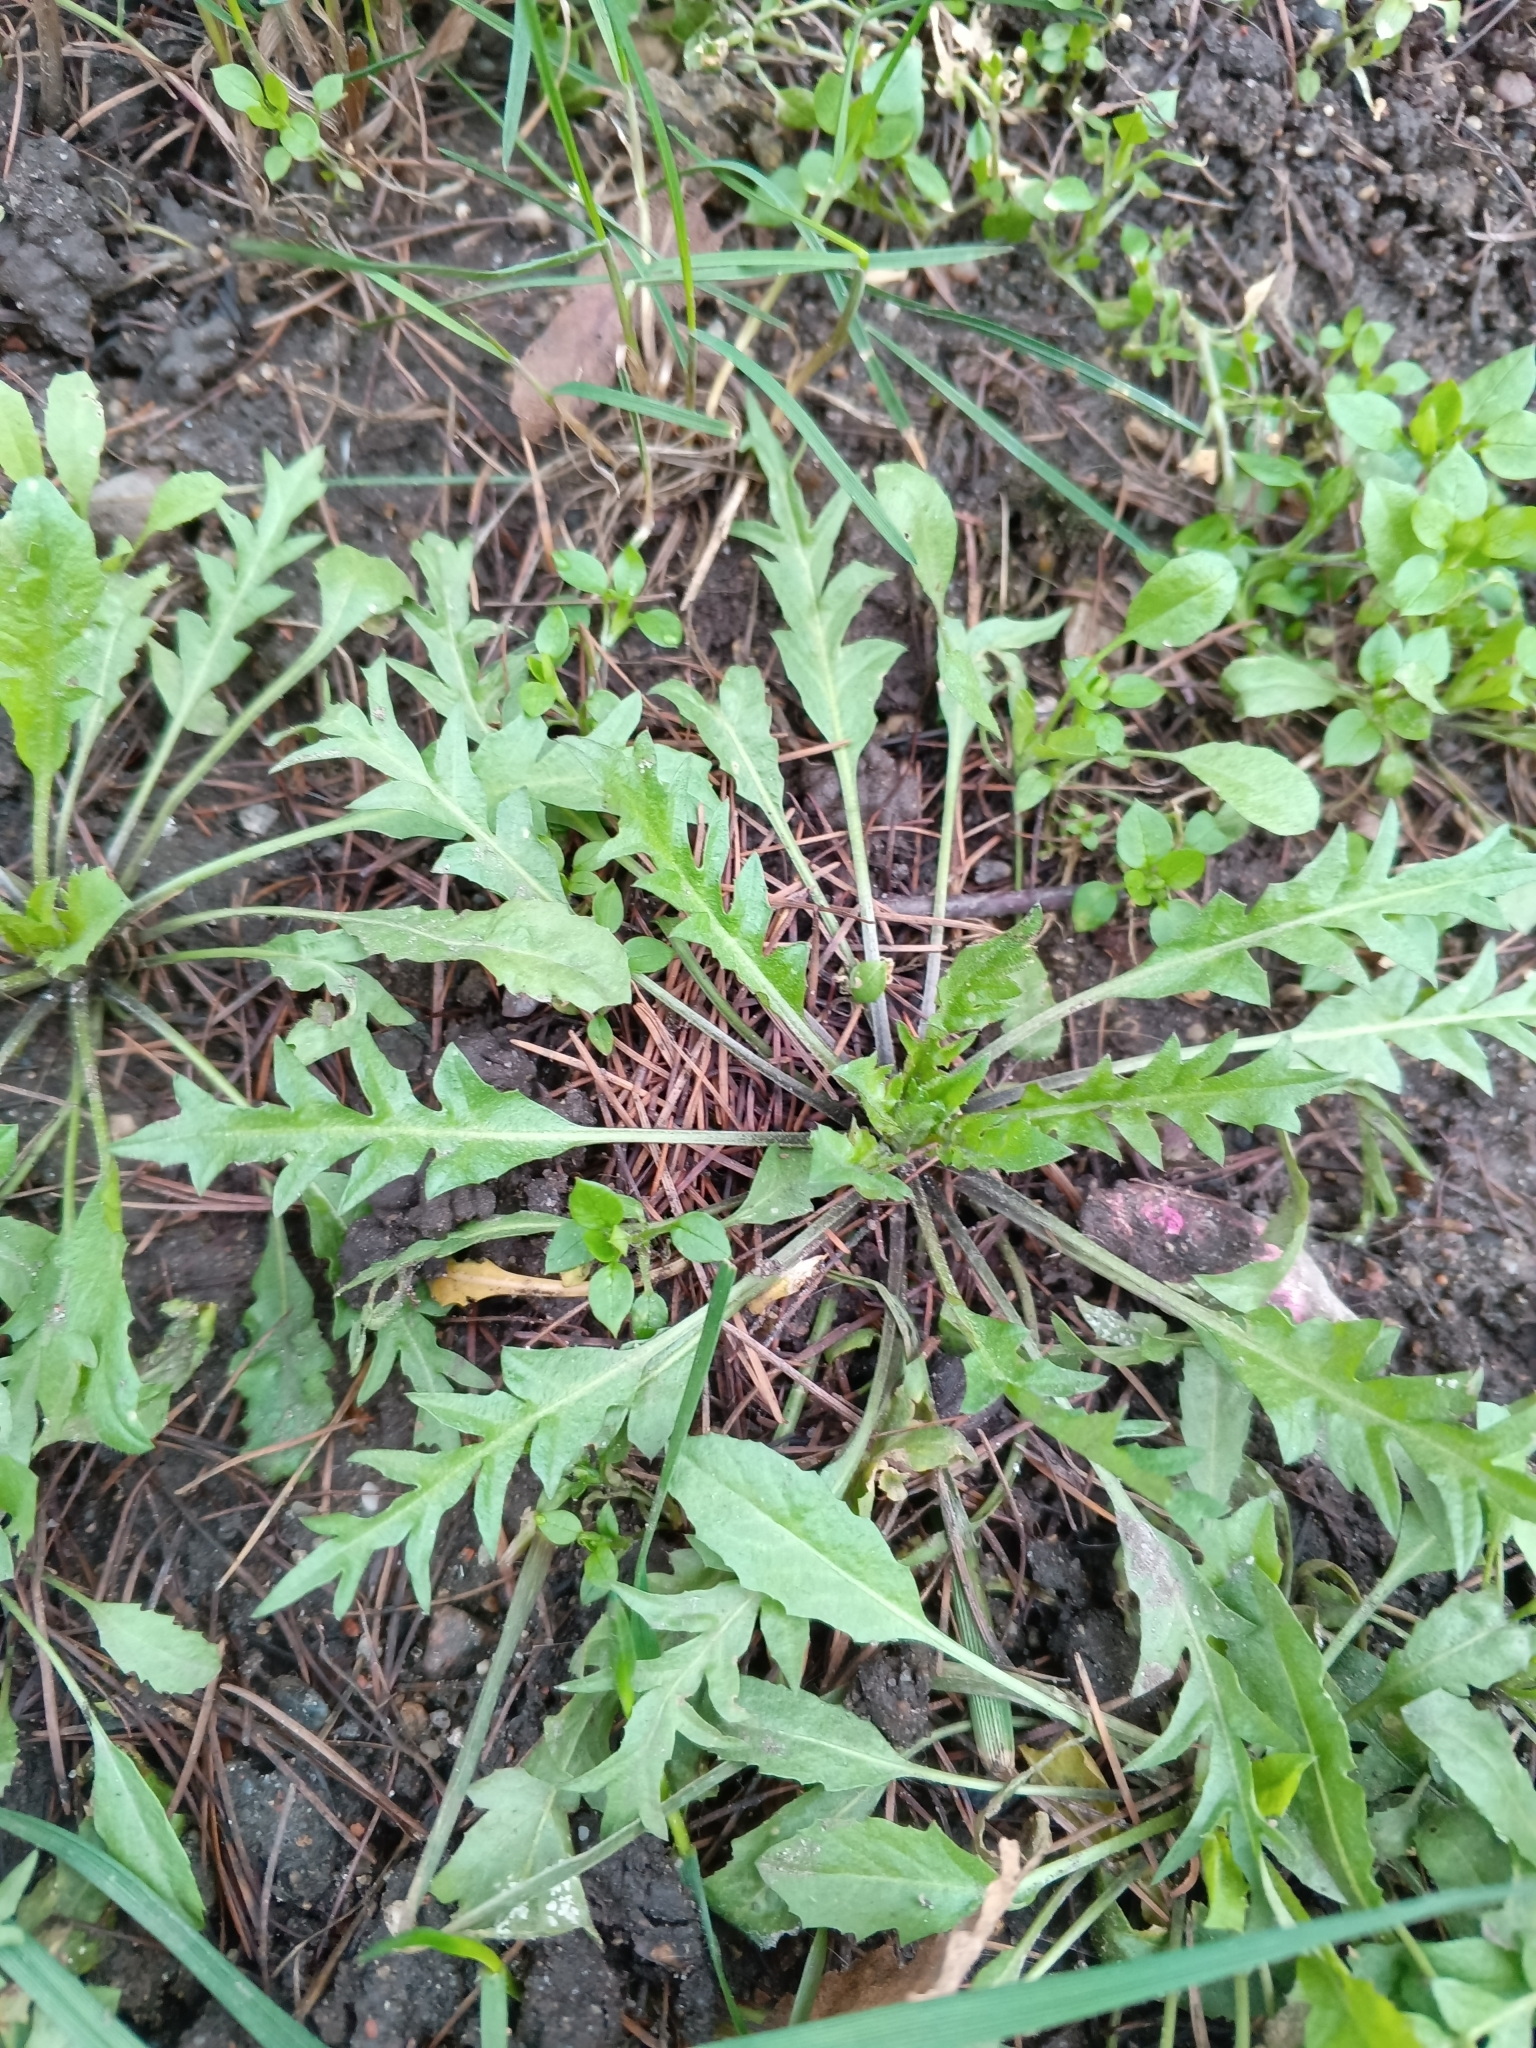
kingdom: Plantae
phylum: Tracheophyta
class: Magnoliopsida
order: Brassicales
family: Brassicaceae
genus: Capsella
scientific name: Capsella bursa-pastoris
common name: Shepherd's purse
